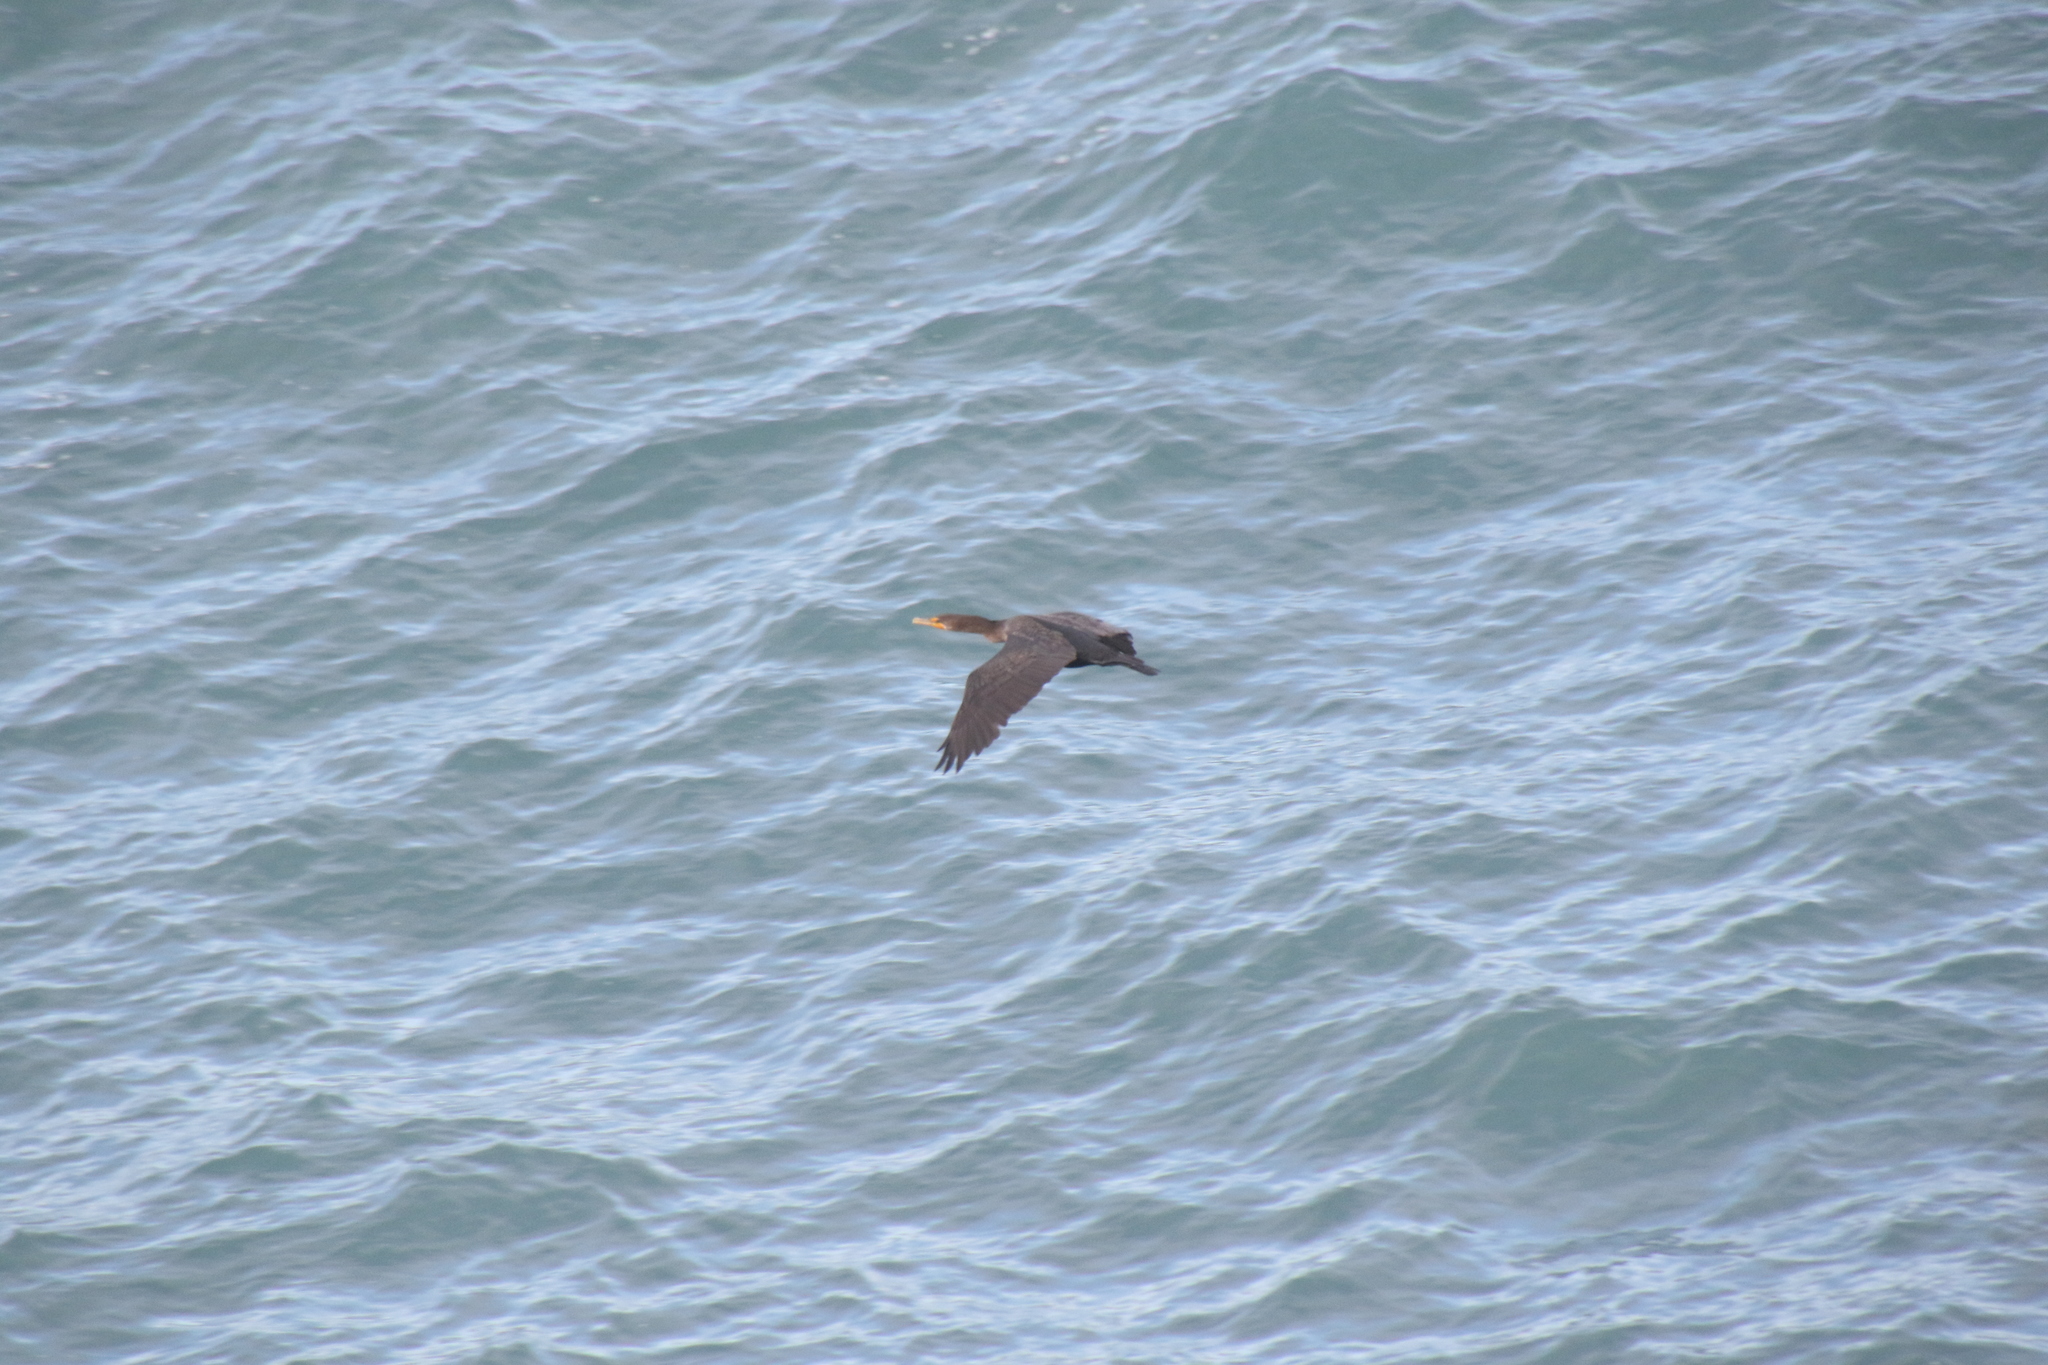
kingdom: Animalia
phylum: Chordata
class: Aves
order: Suliformes
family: Phalacrocoracidae
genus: Phalacrocorax
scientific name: Phalacrocorax auritus
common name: Double-crested cormorant
